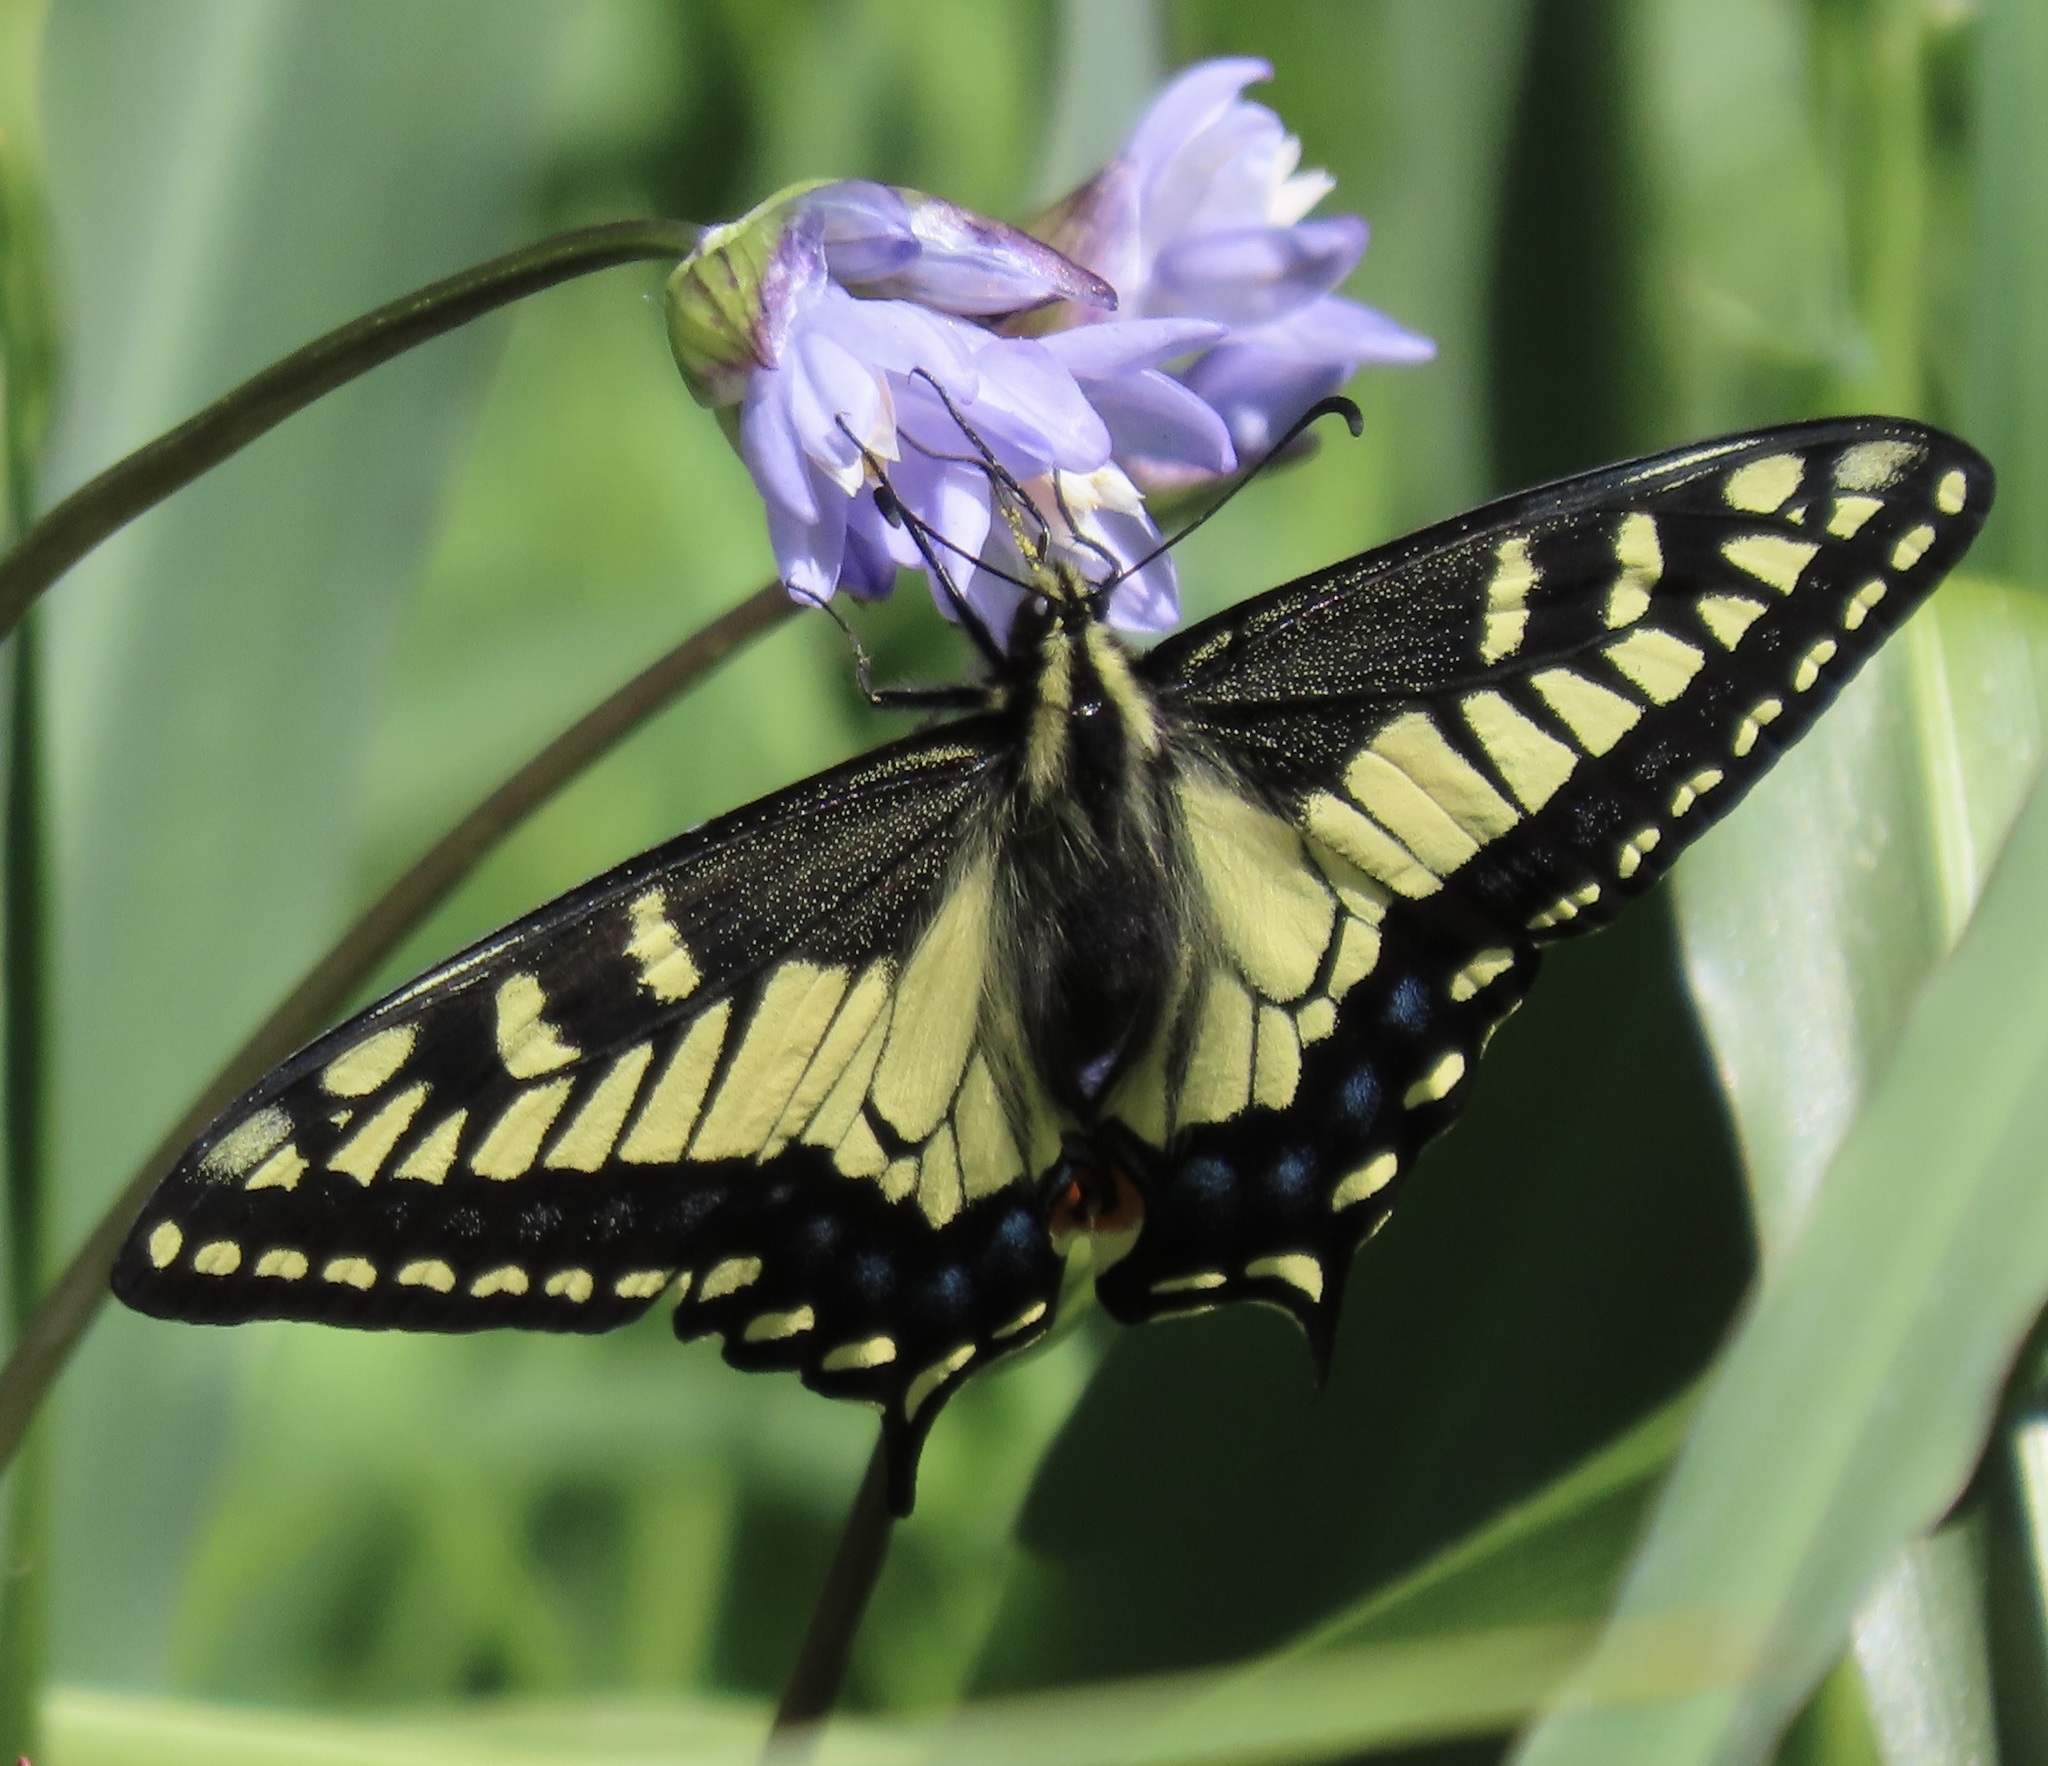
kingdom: Animalia
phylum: Arthropoda
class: Insecta
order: Lepidoptera
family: Papilionidae
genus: Papilio
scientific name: Papilio zelicaon
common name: Anise swallowtail
